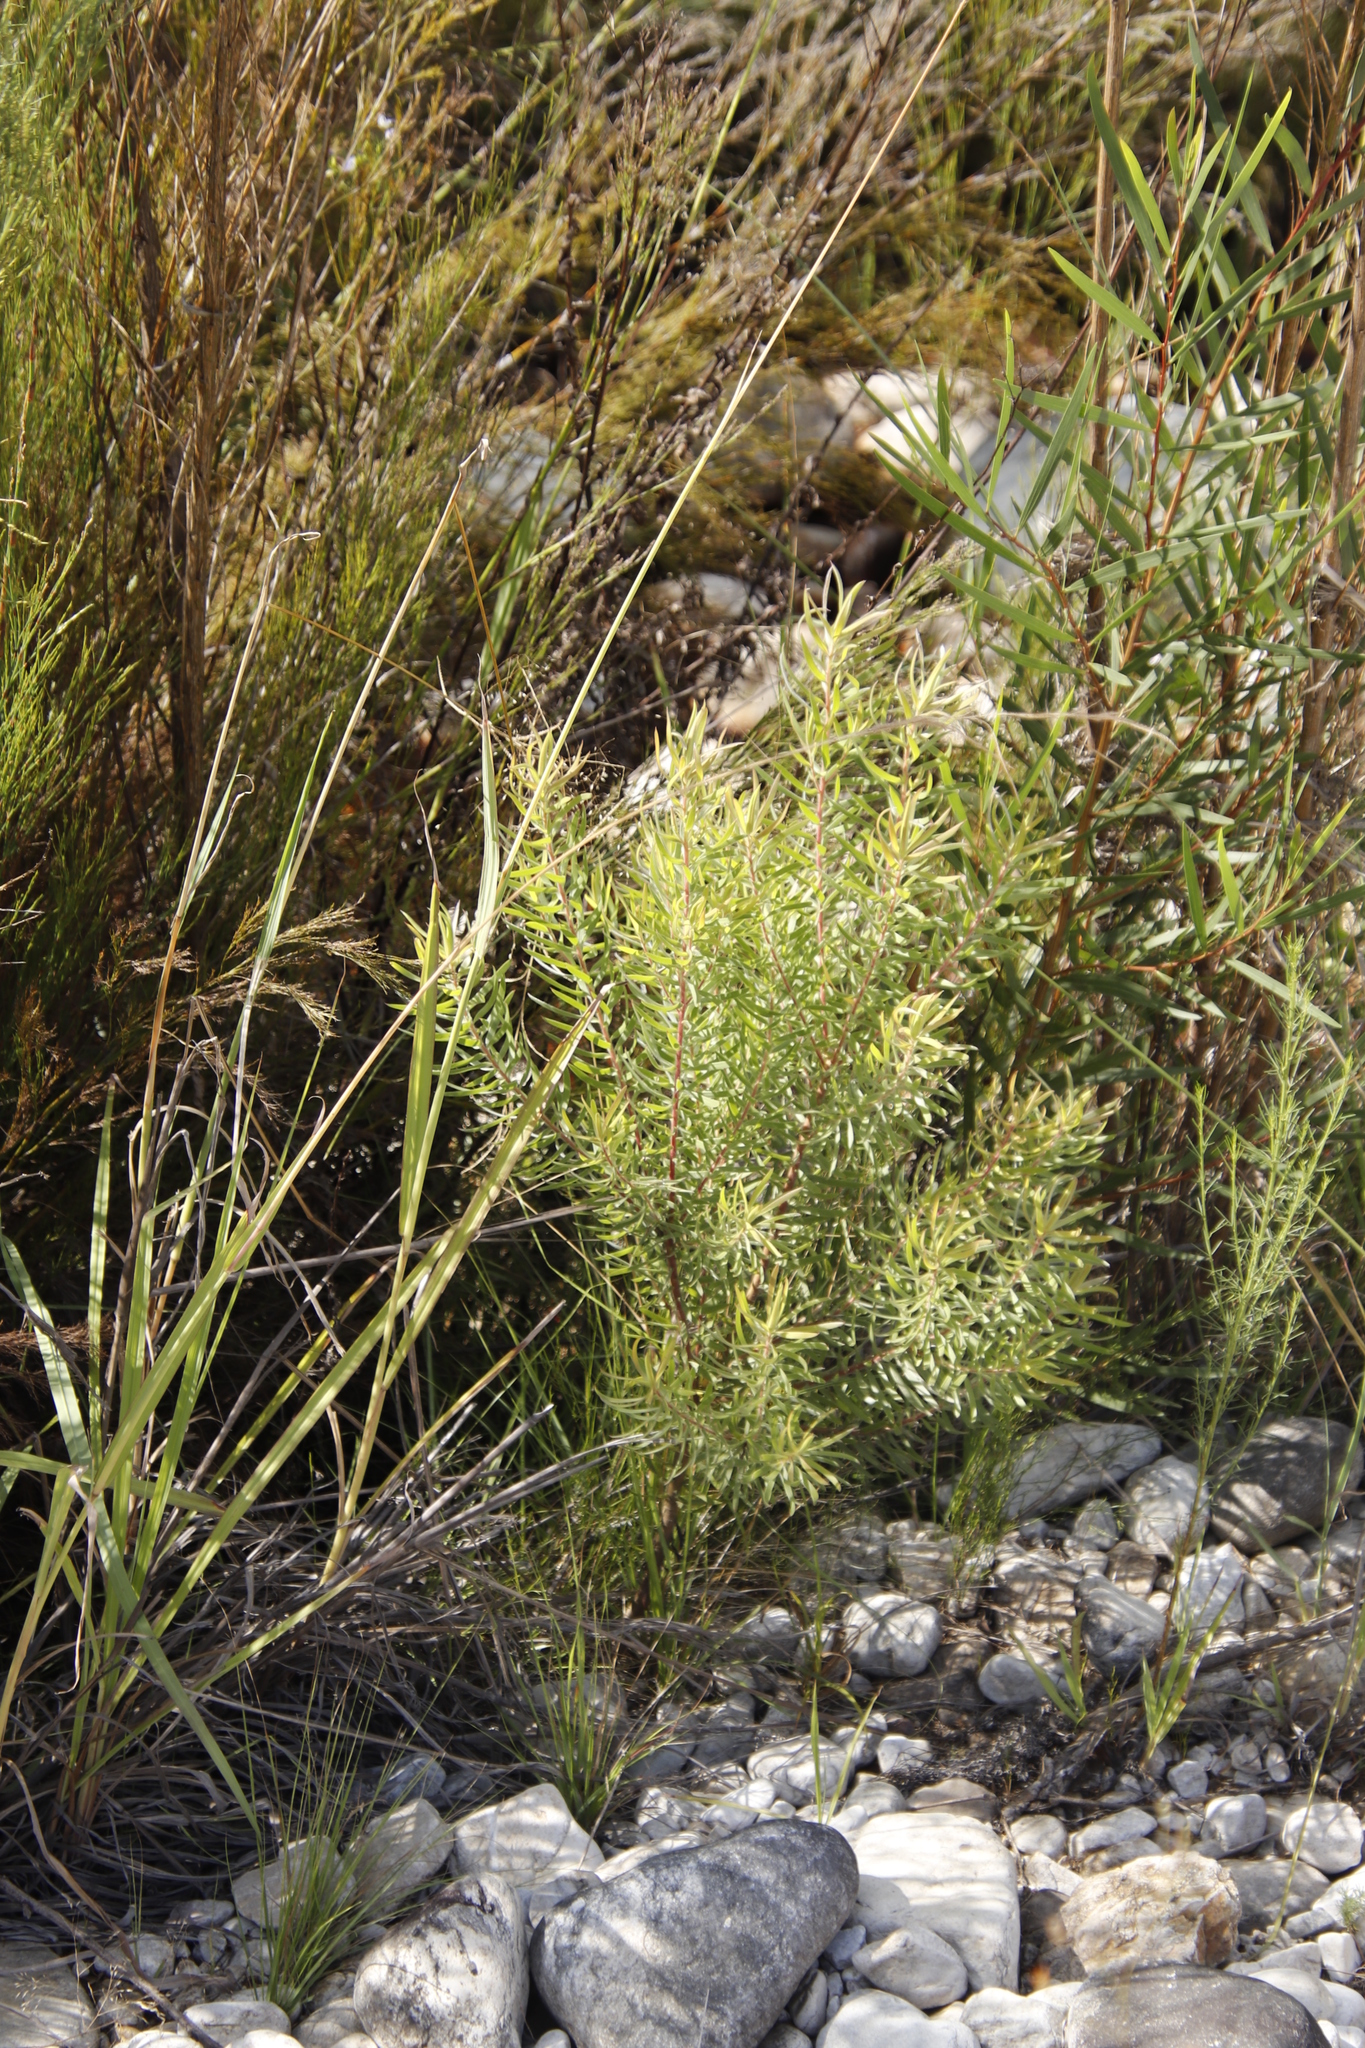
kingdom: Plantae
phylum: Tracheophyta
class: Magnoliopsida
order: Proteales
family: Proteaceae
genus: Leucadendron
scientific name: Leucadendron salicifolium
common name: Common stream conebush
